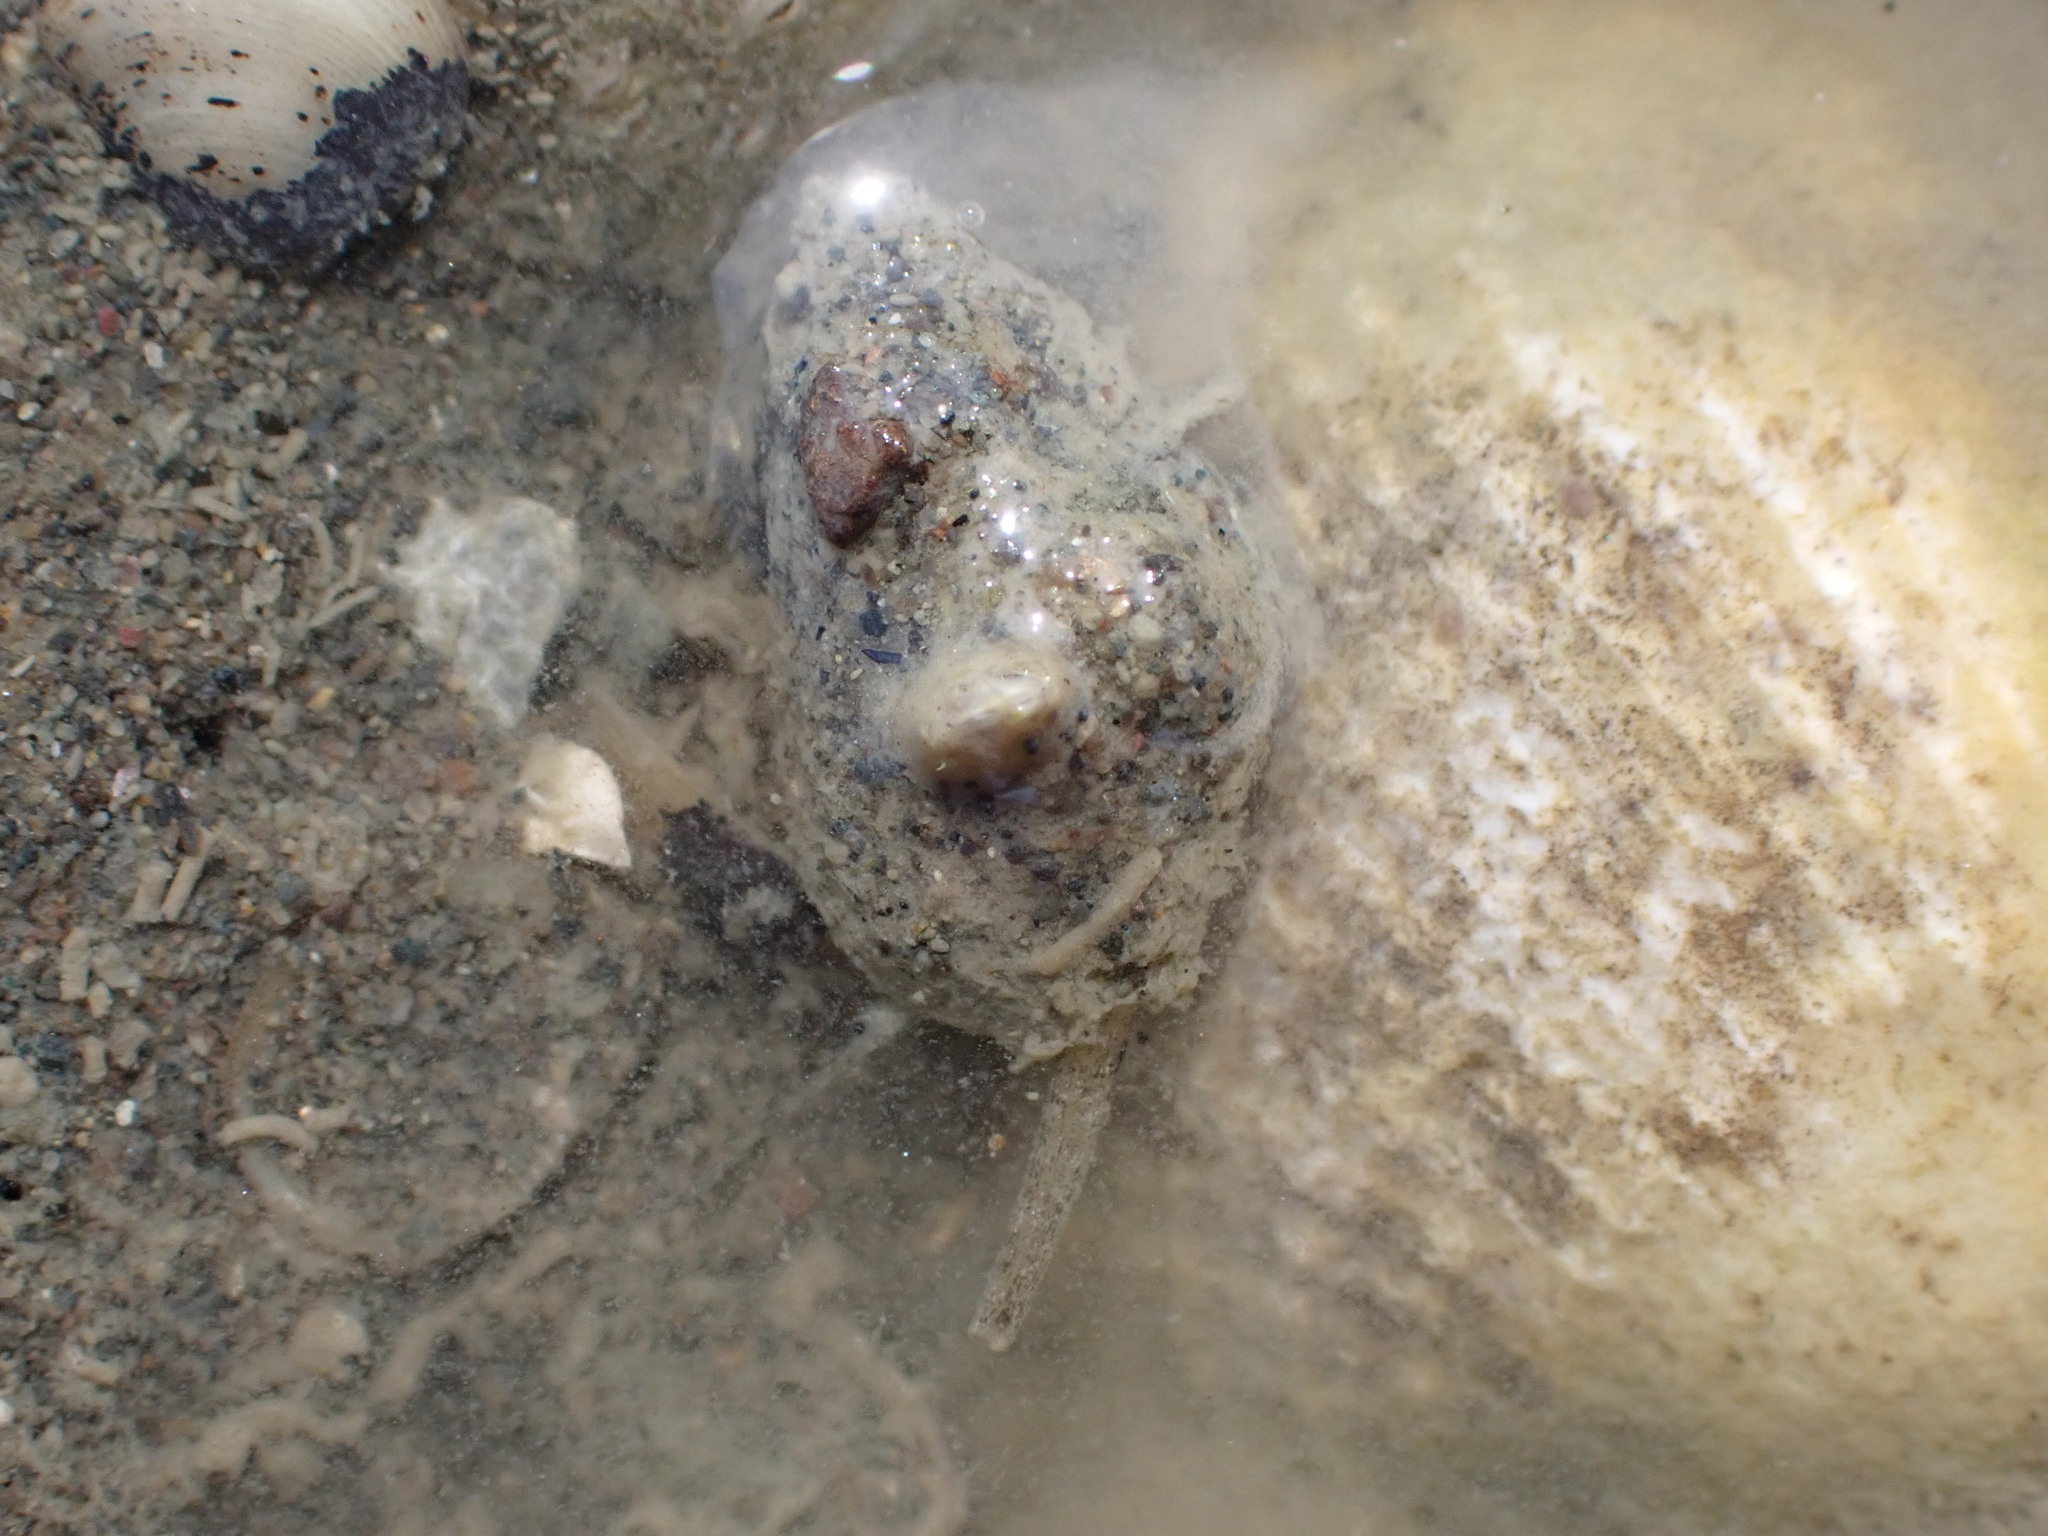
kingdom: Animalia
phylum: Mollusca
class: Gastropoda
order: Neogastropoda
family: Nassariidae
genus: Tritia
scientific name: Tritia burchardi
